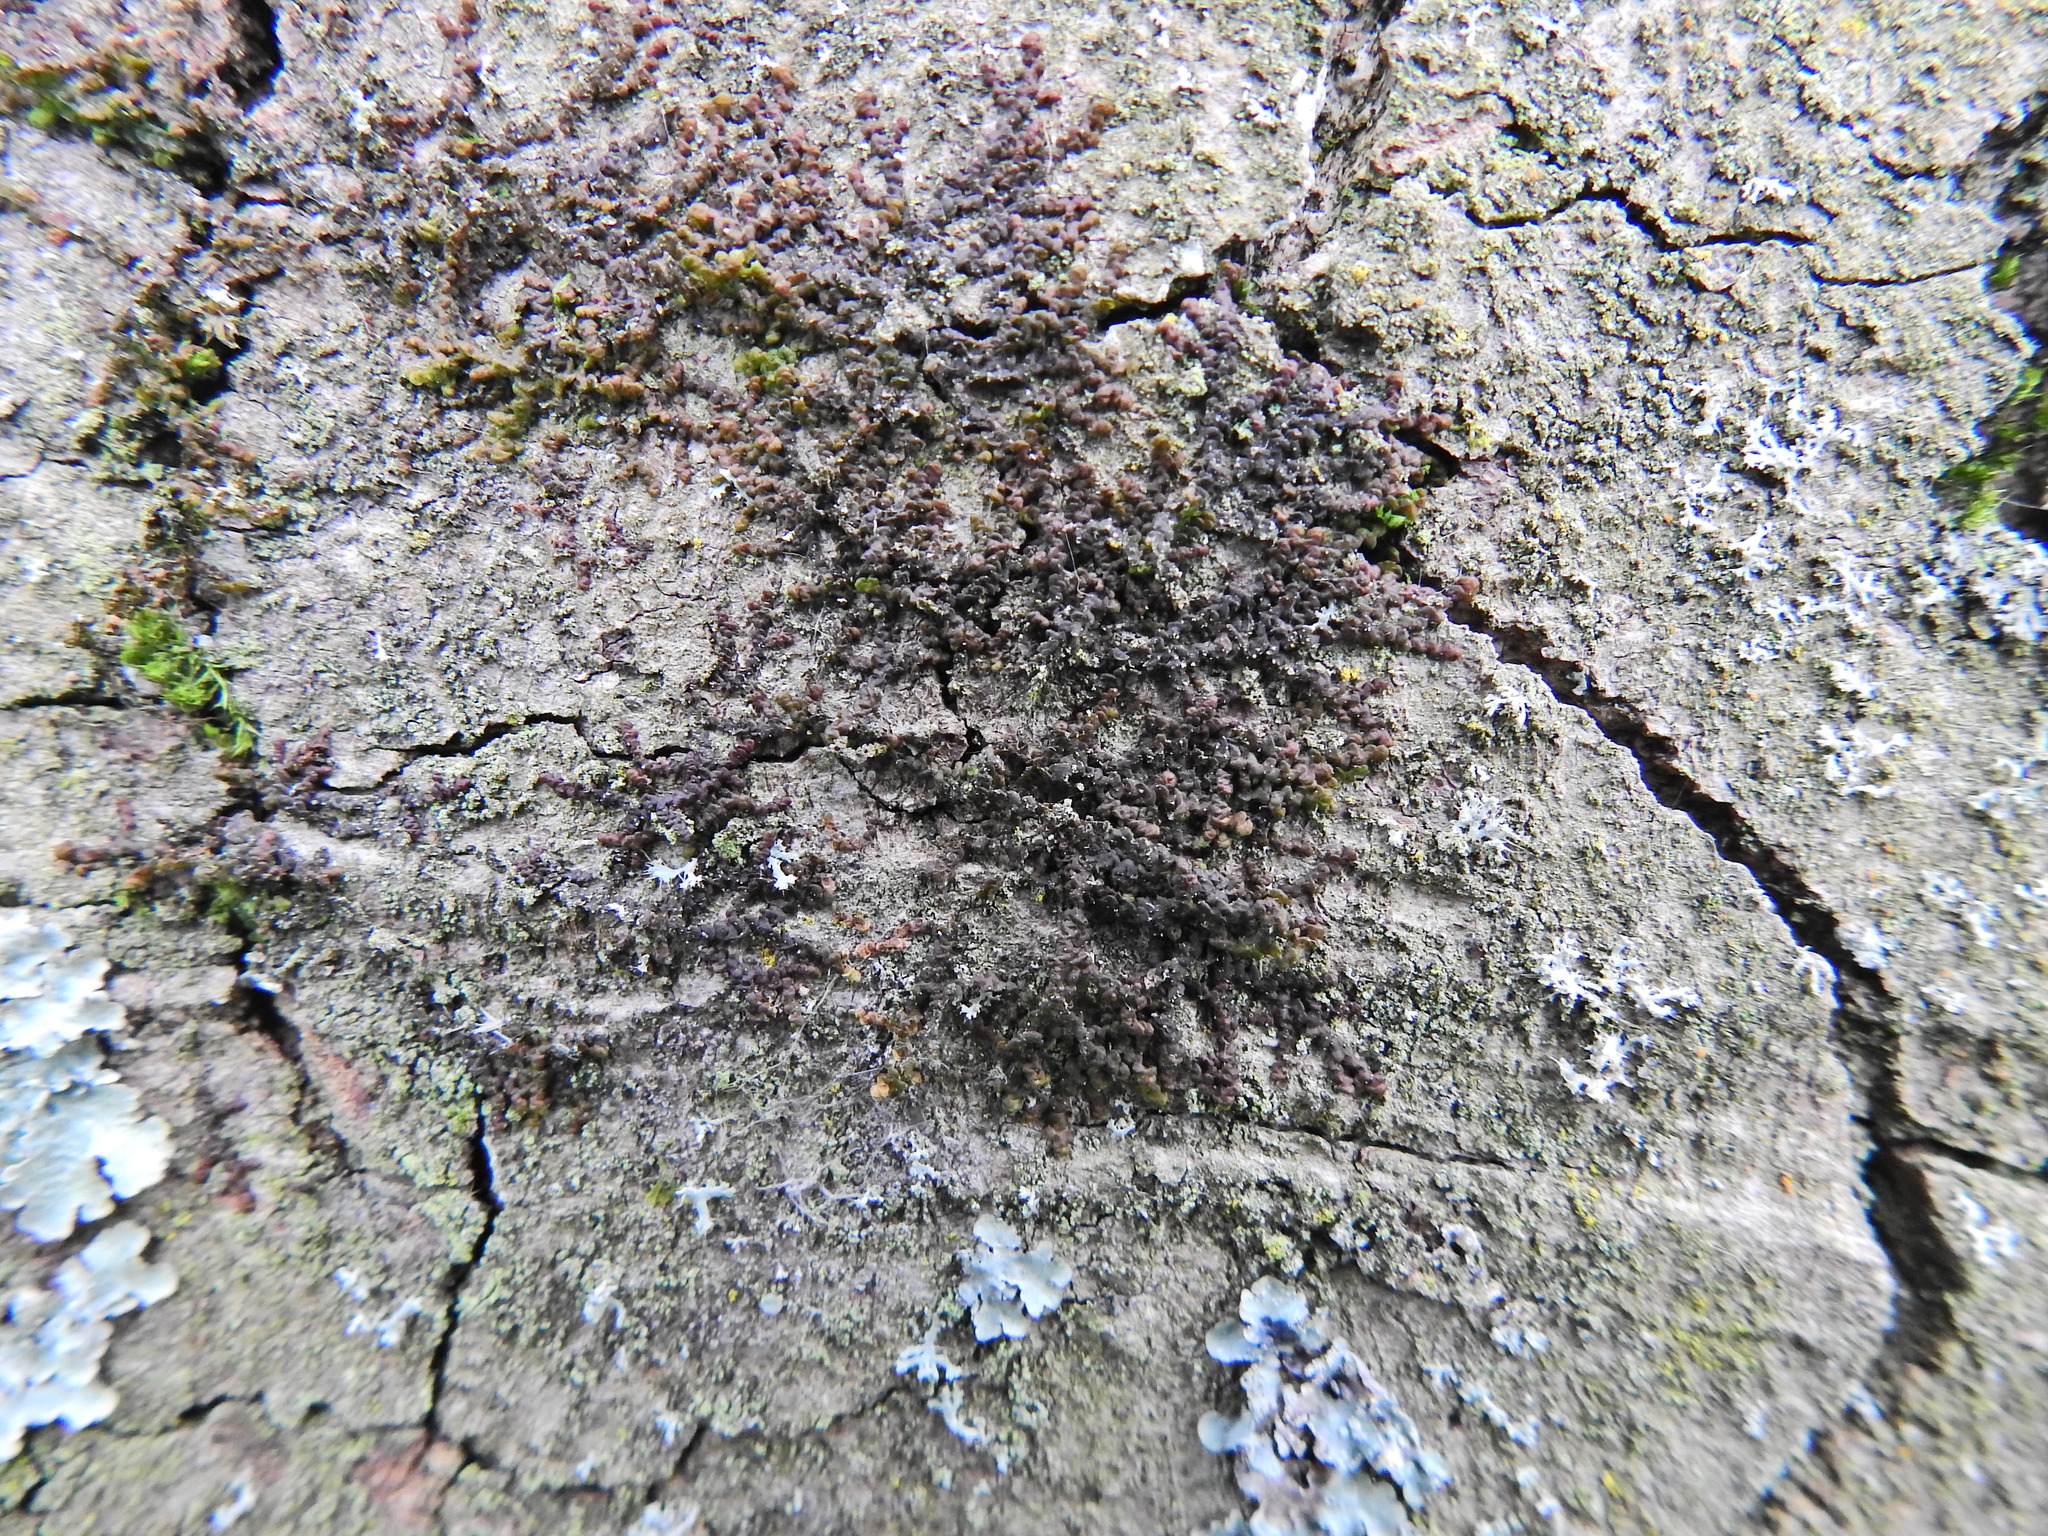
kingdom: Plantae
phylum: Marchantiophyta
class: Jungermanniopsida
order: Porellales
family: Frullaniaceae
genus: Frullania
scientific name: Frullania dilatata
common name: Dilated scalewort
